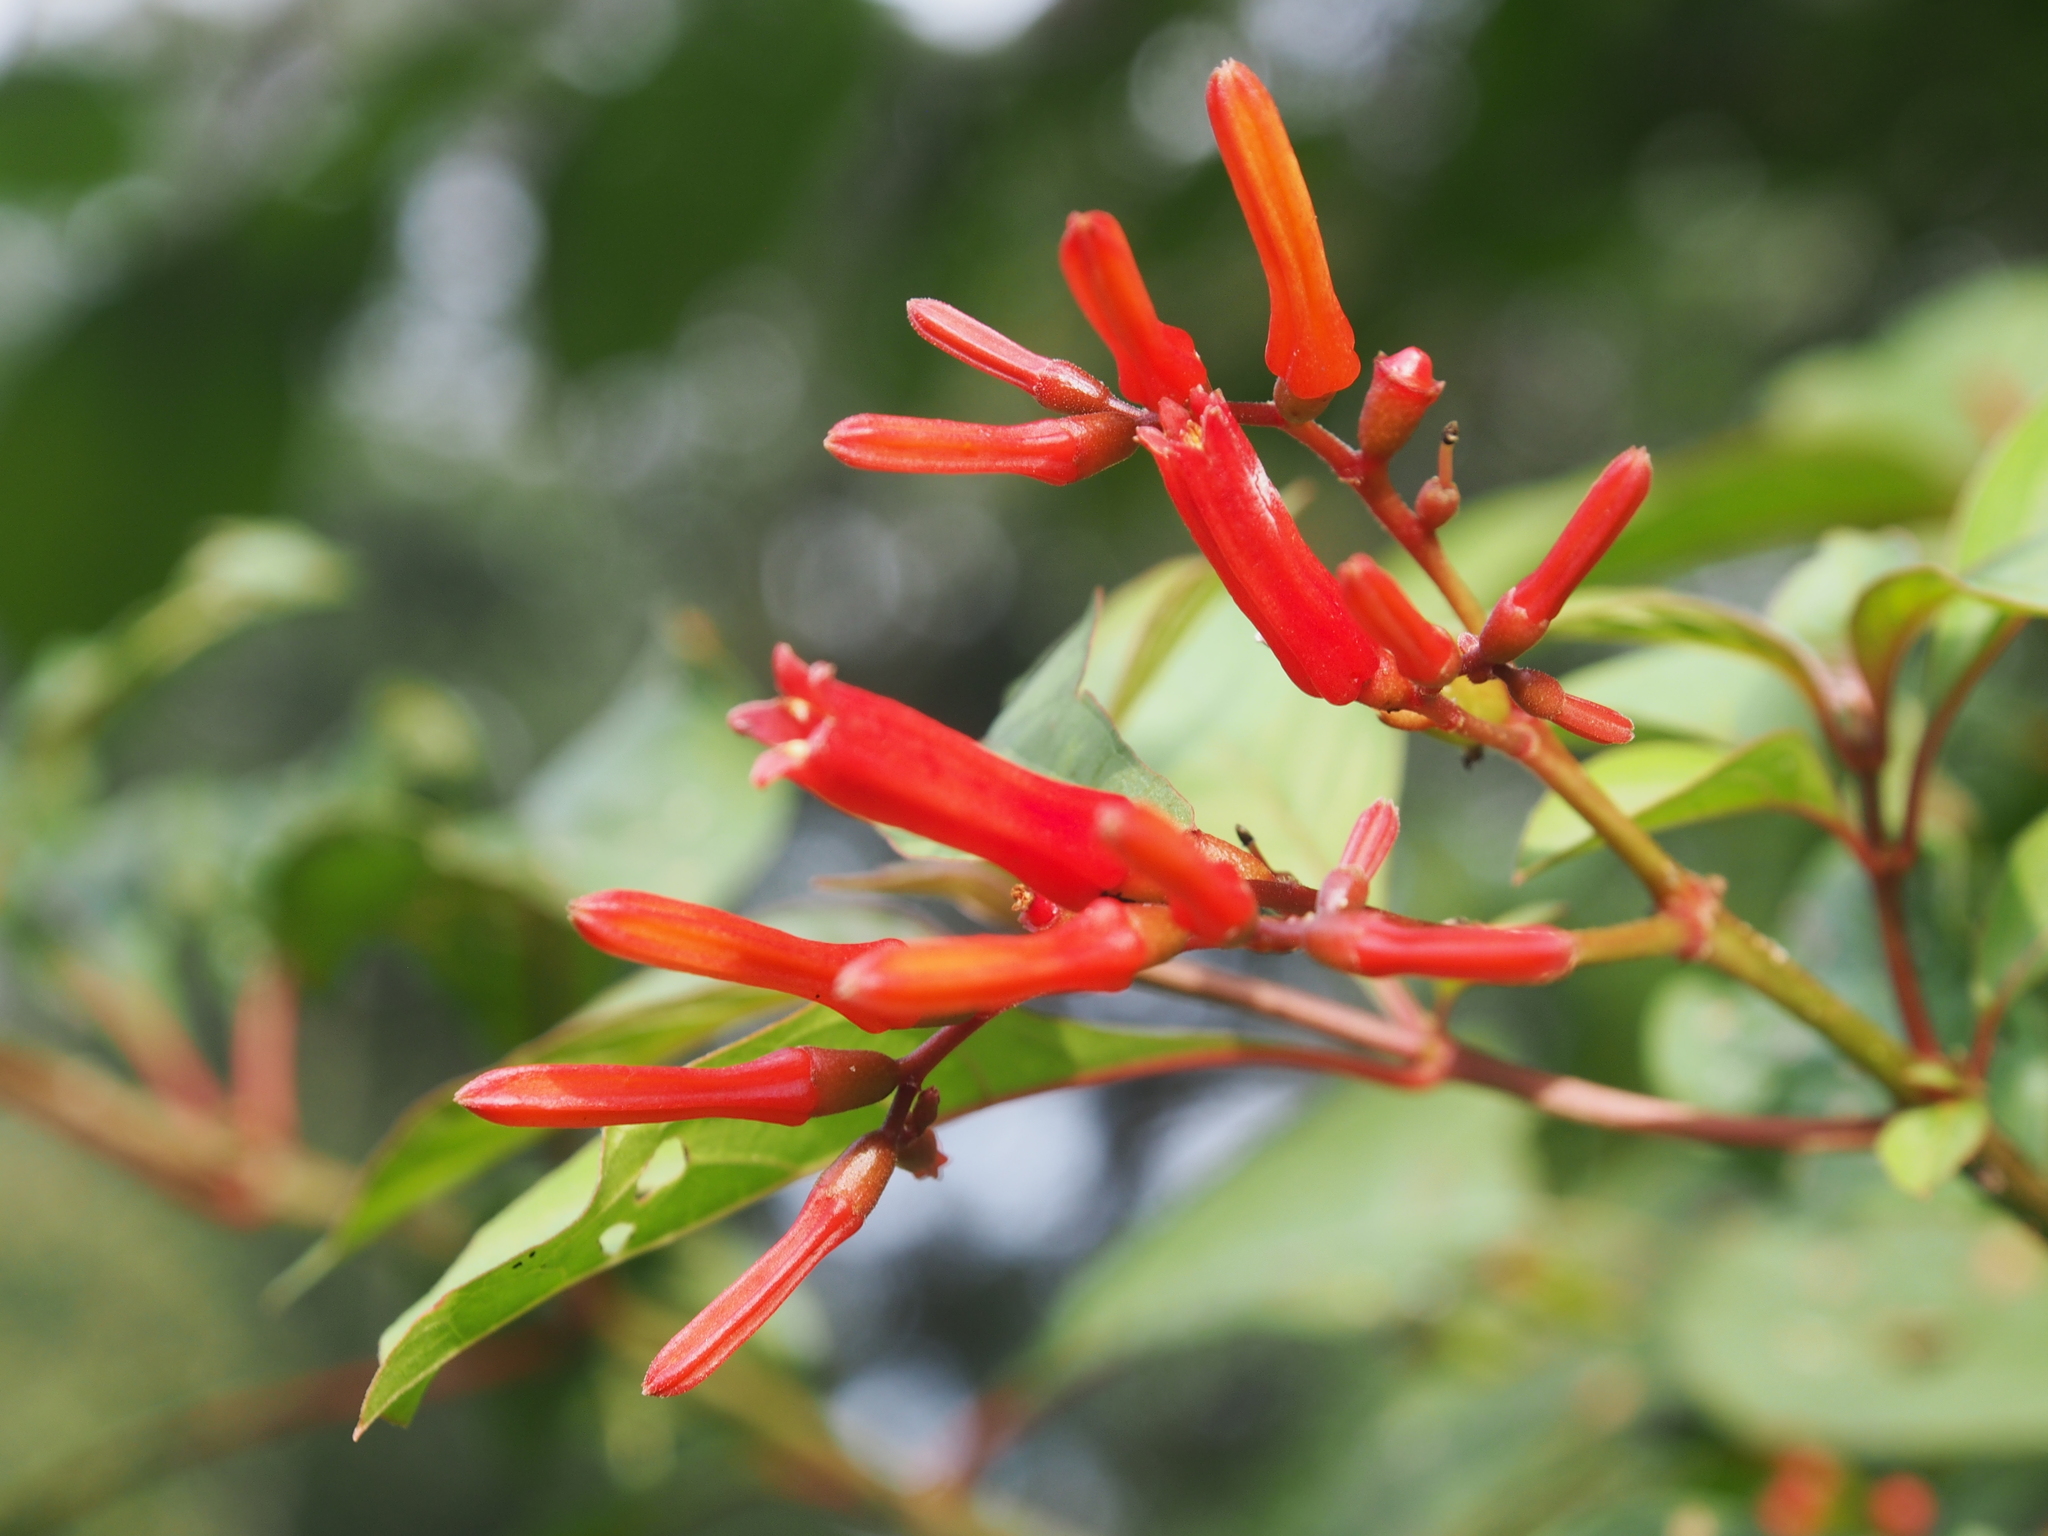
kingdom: Plantae
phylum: Tracheophyta
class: Magnoliopsida
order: Gentianales
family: Rubiaceae
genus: Hamelia
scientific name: Hamelia patens
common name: Redhead
